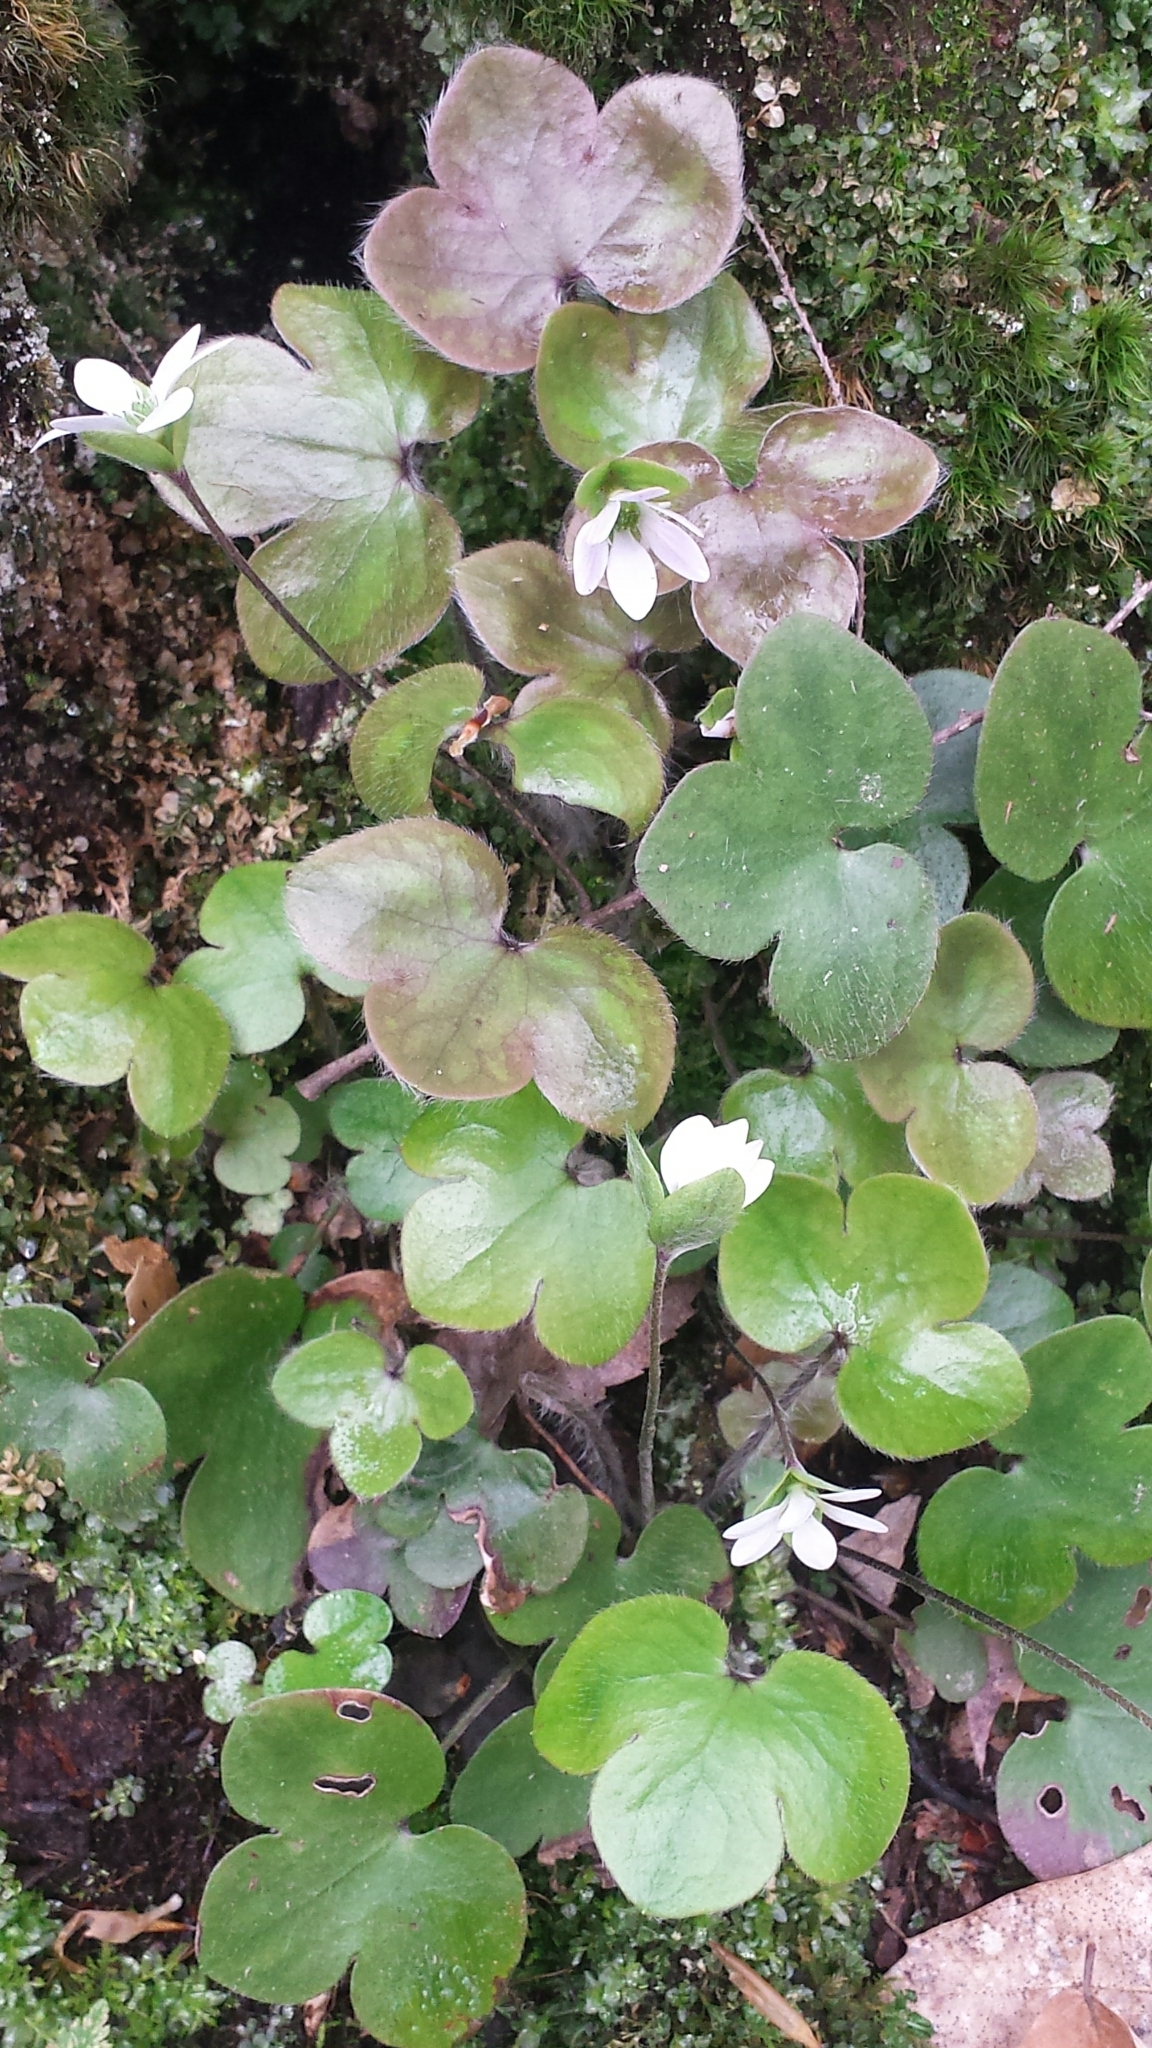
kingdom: Plantae
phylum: Tracheophyta
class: Magnoliopsida
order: Ranunculales
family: Ranunculaceae
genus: Hepatica
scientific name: Hepatica americana
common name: American hepatica
